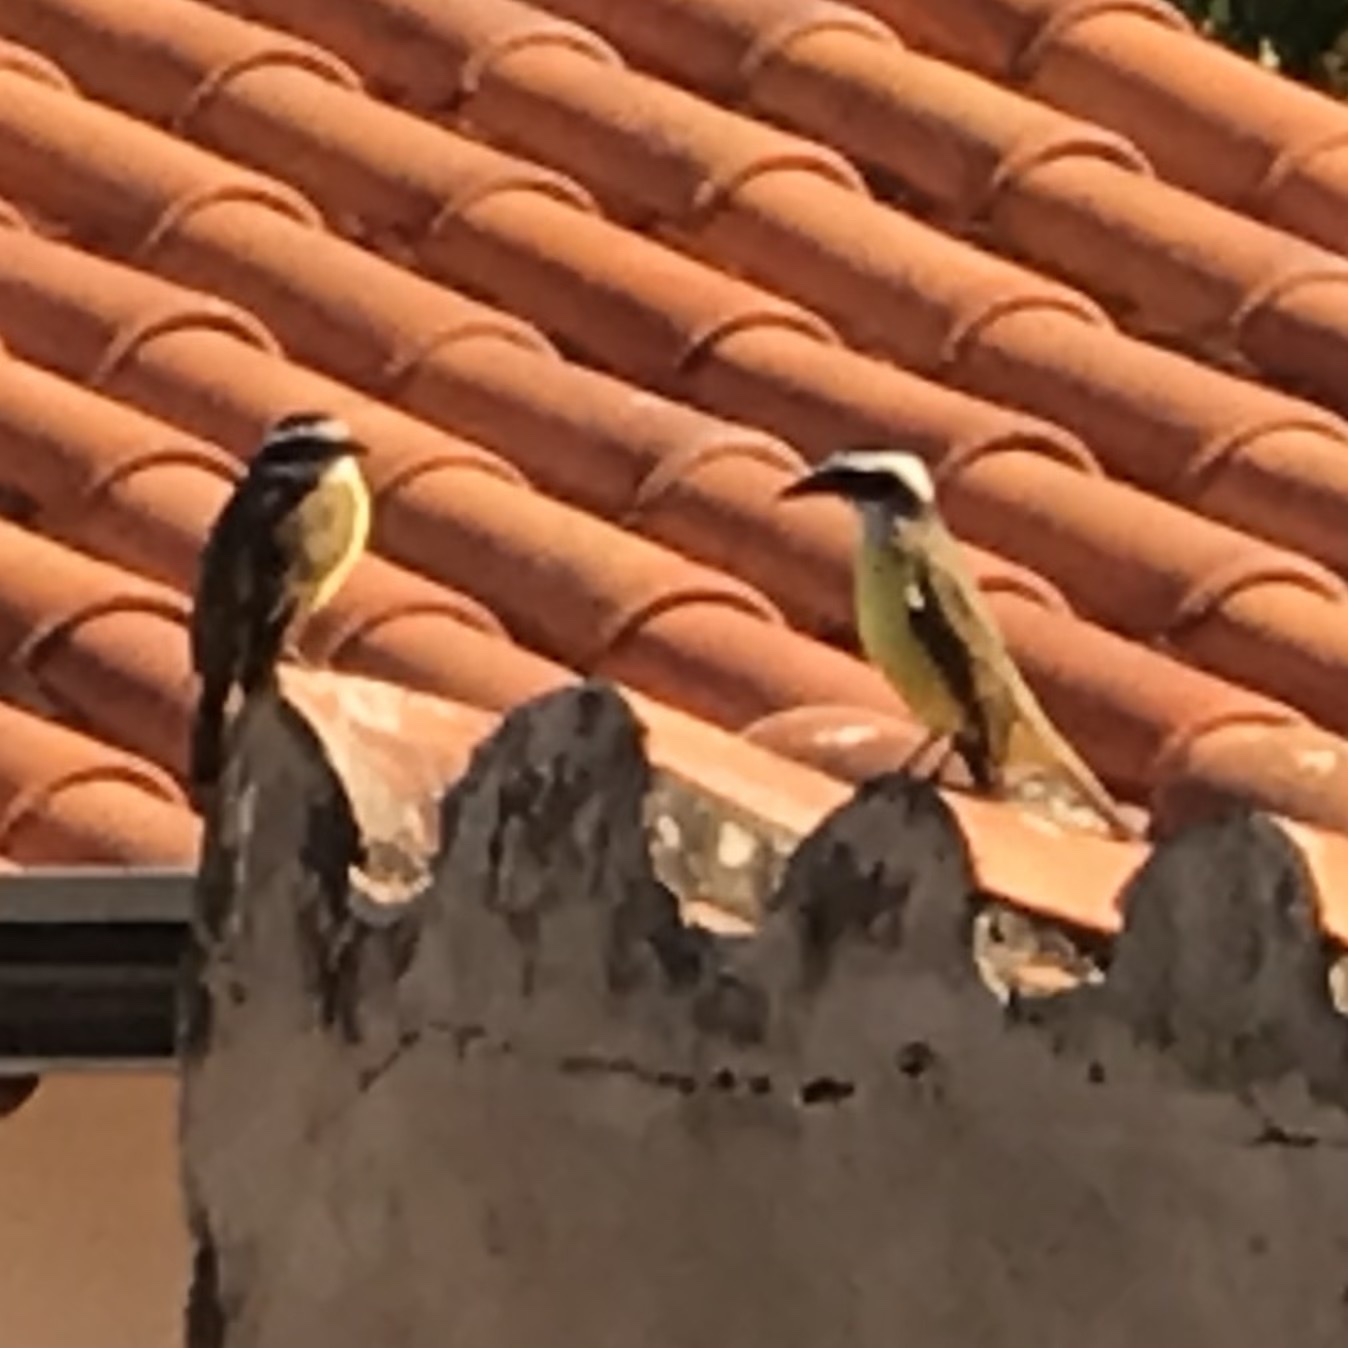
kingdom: Animalia
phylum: Chordata
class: Aves
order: Passeriformes
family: Tyrannidae
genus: Pitangus
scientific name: Pitangus sulphuratus
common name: Great kiskadee
